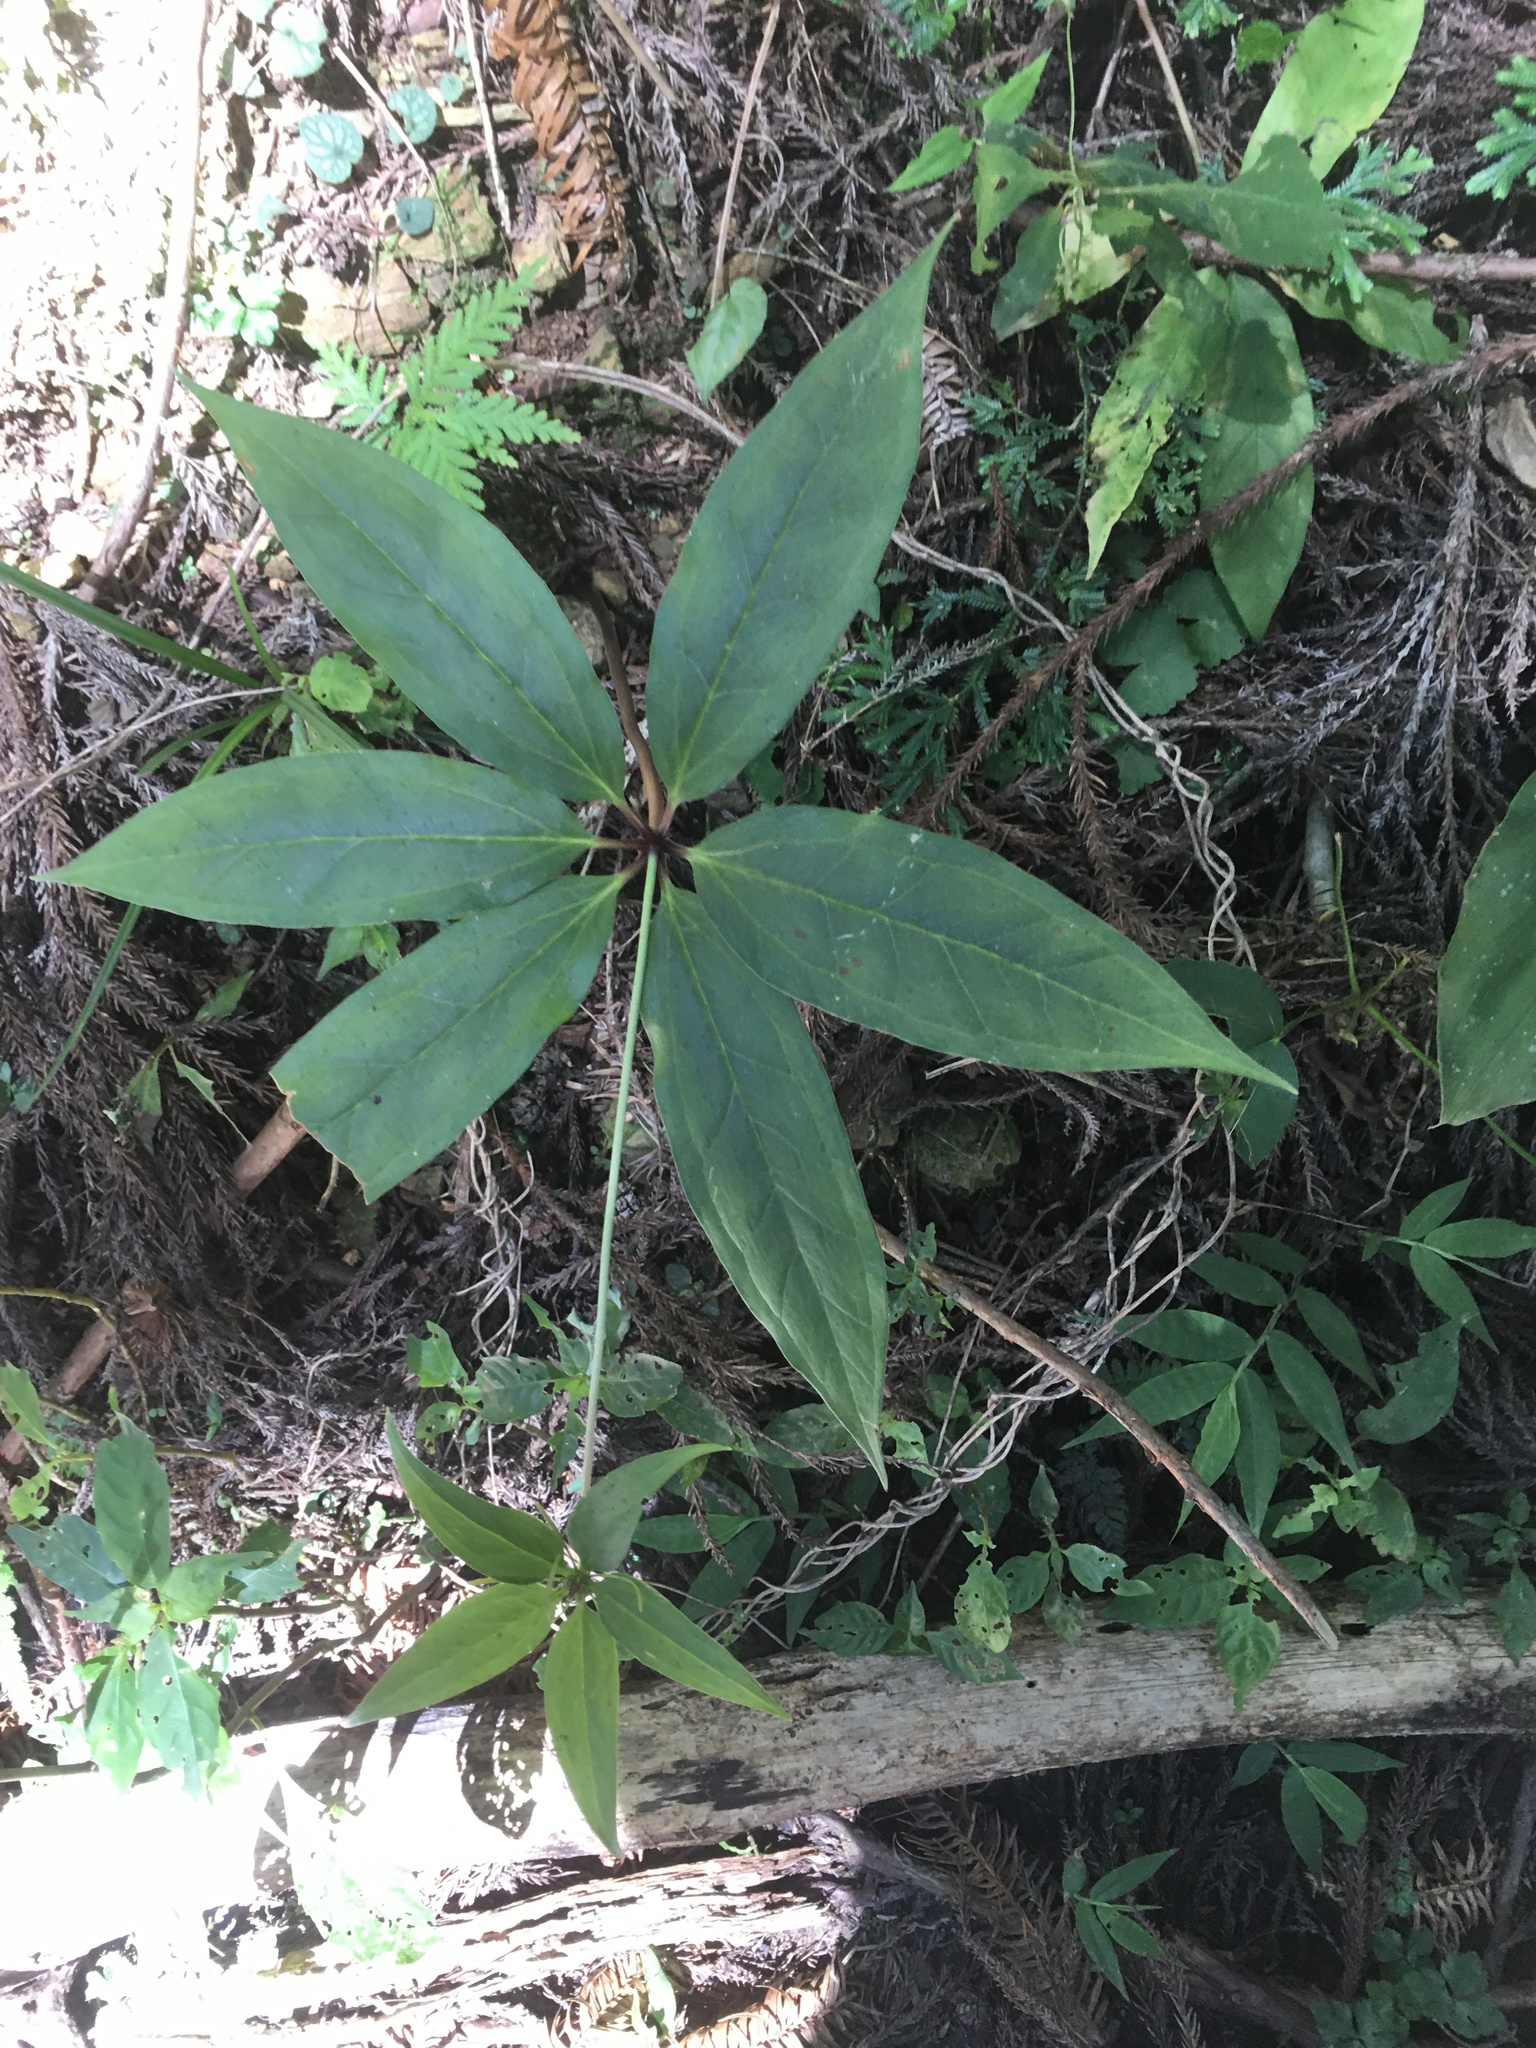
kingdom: Plantae
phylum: Tracheophyta
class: Liliopsida
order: Liliales
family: Melanthiaceae
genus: Paris
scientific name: Paris polyphylla
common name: Love apple
